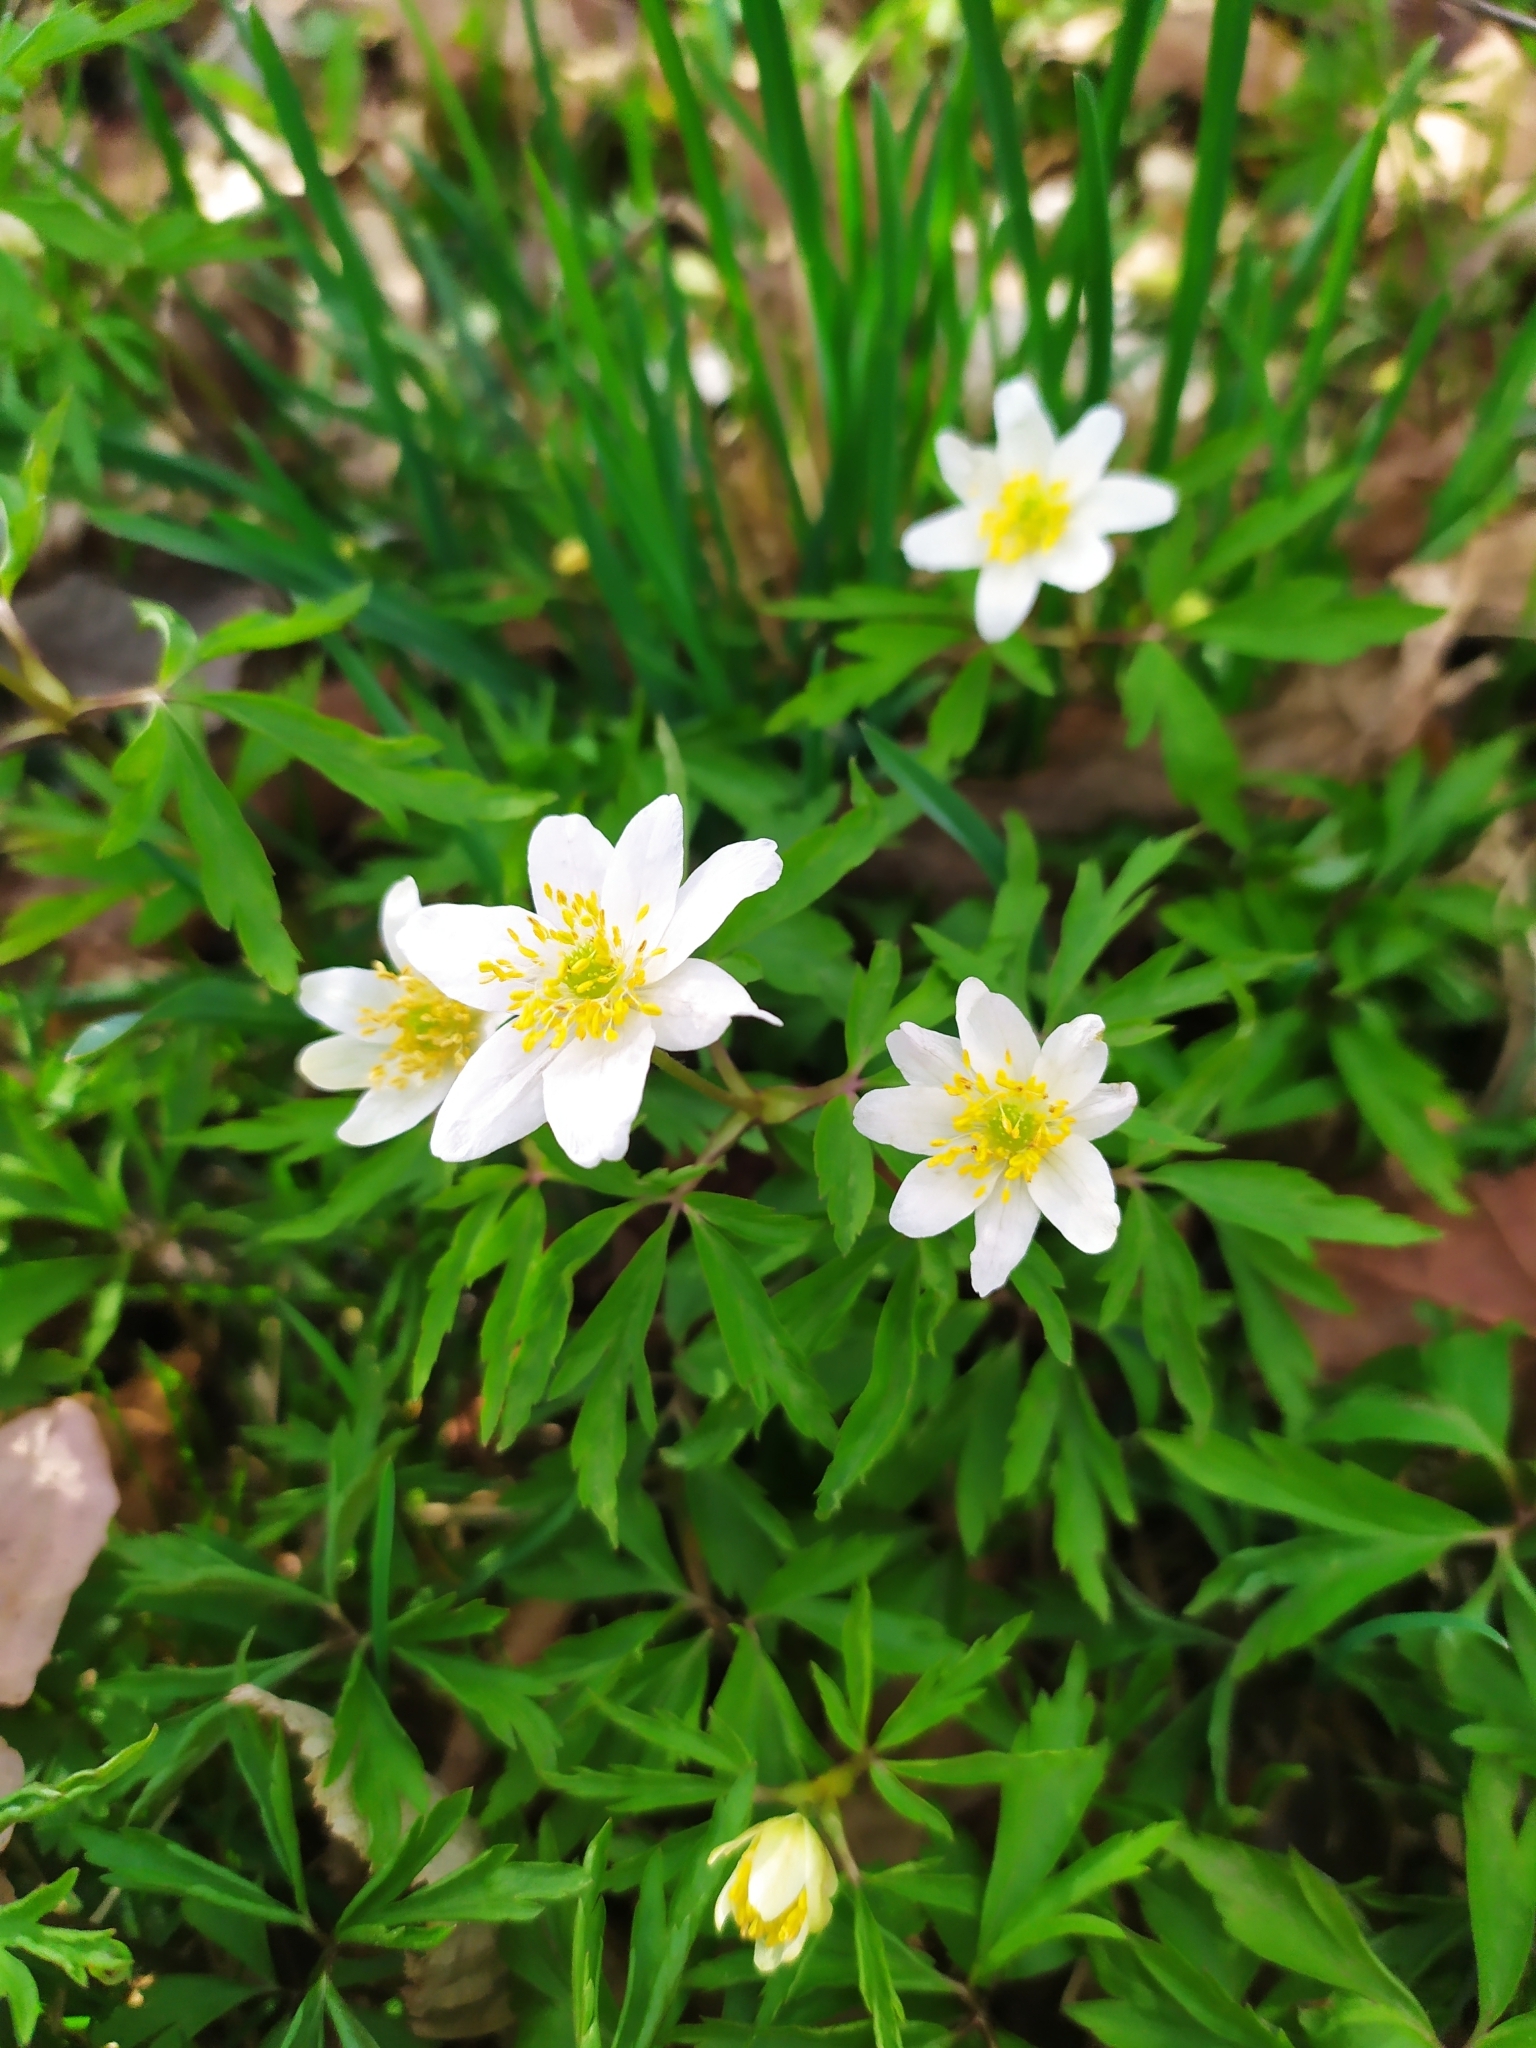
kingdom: Plantae
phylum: Tracheophyta
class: Magnoliopsida
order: Ranunculales
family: Ranunculaceae
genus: Anemone
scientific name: Anemone nemorosa
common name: Wood anemone
